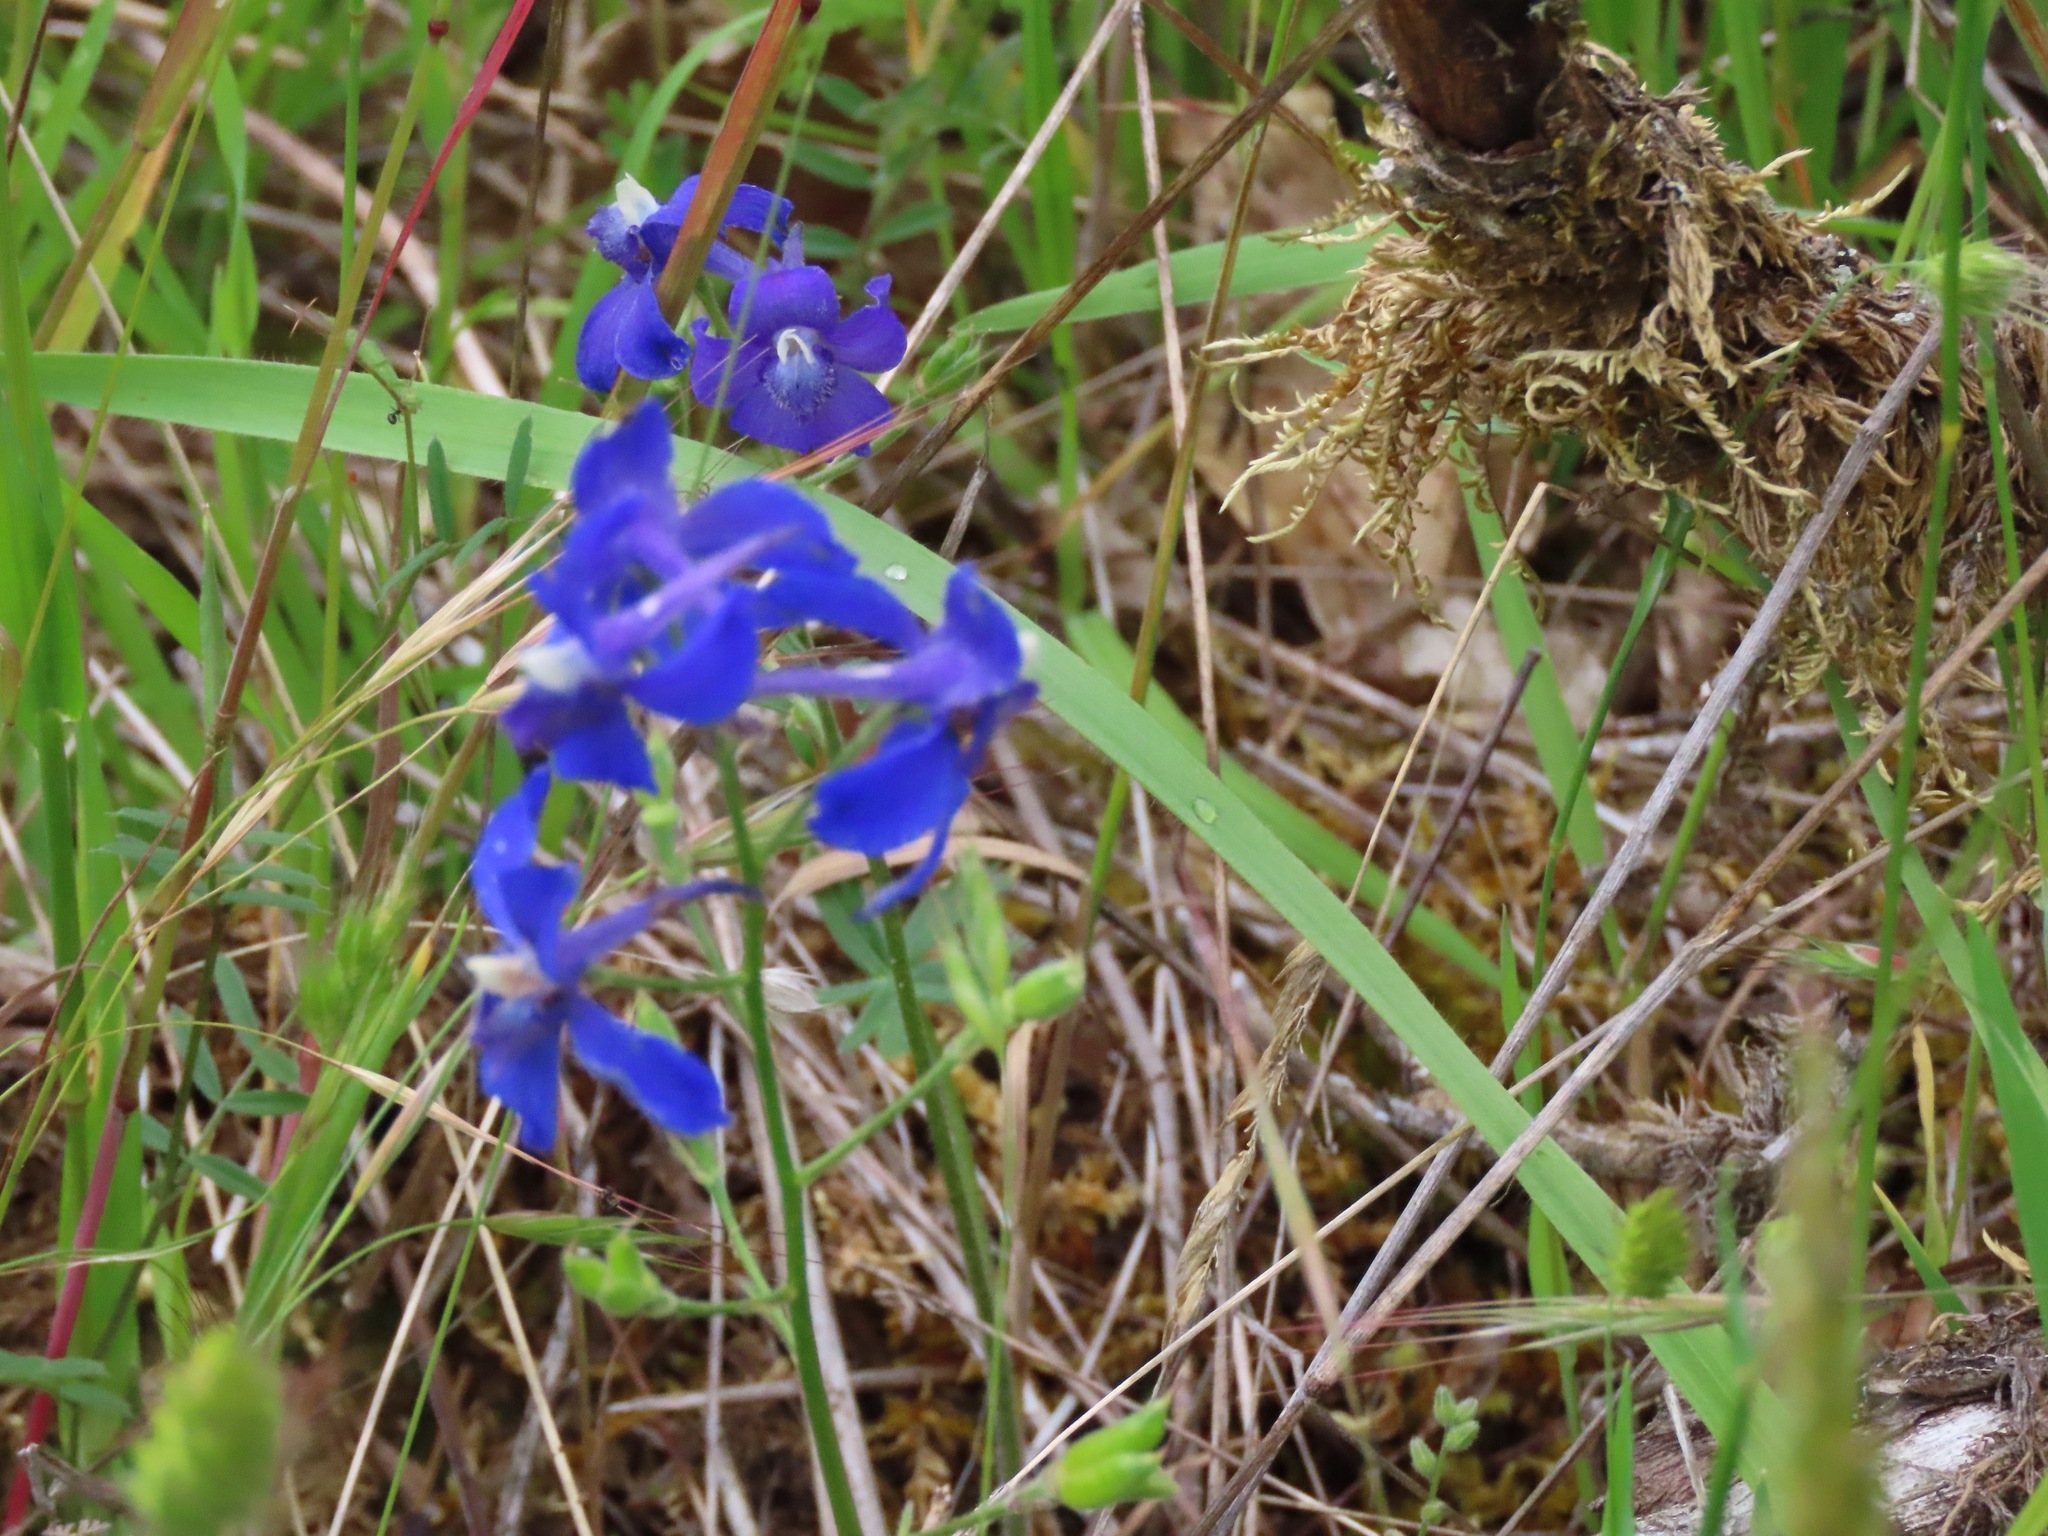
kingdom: Plantae
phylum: Tracheophyta
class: Magnoliopsida
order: Ranunculales
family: Ranunculaceae
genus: Delphinium
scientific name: Delphinium menziesii
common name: Menzies's larkspur
